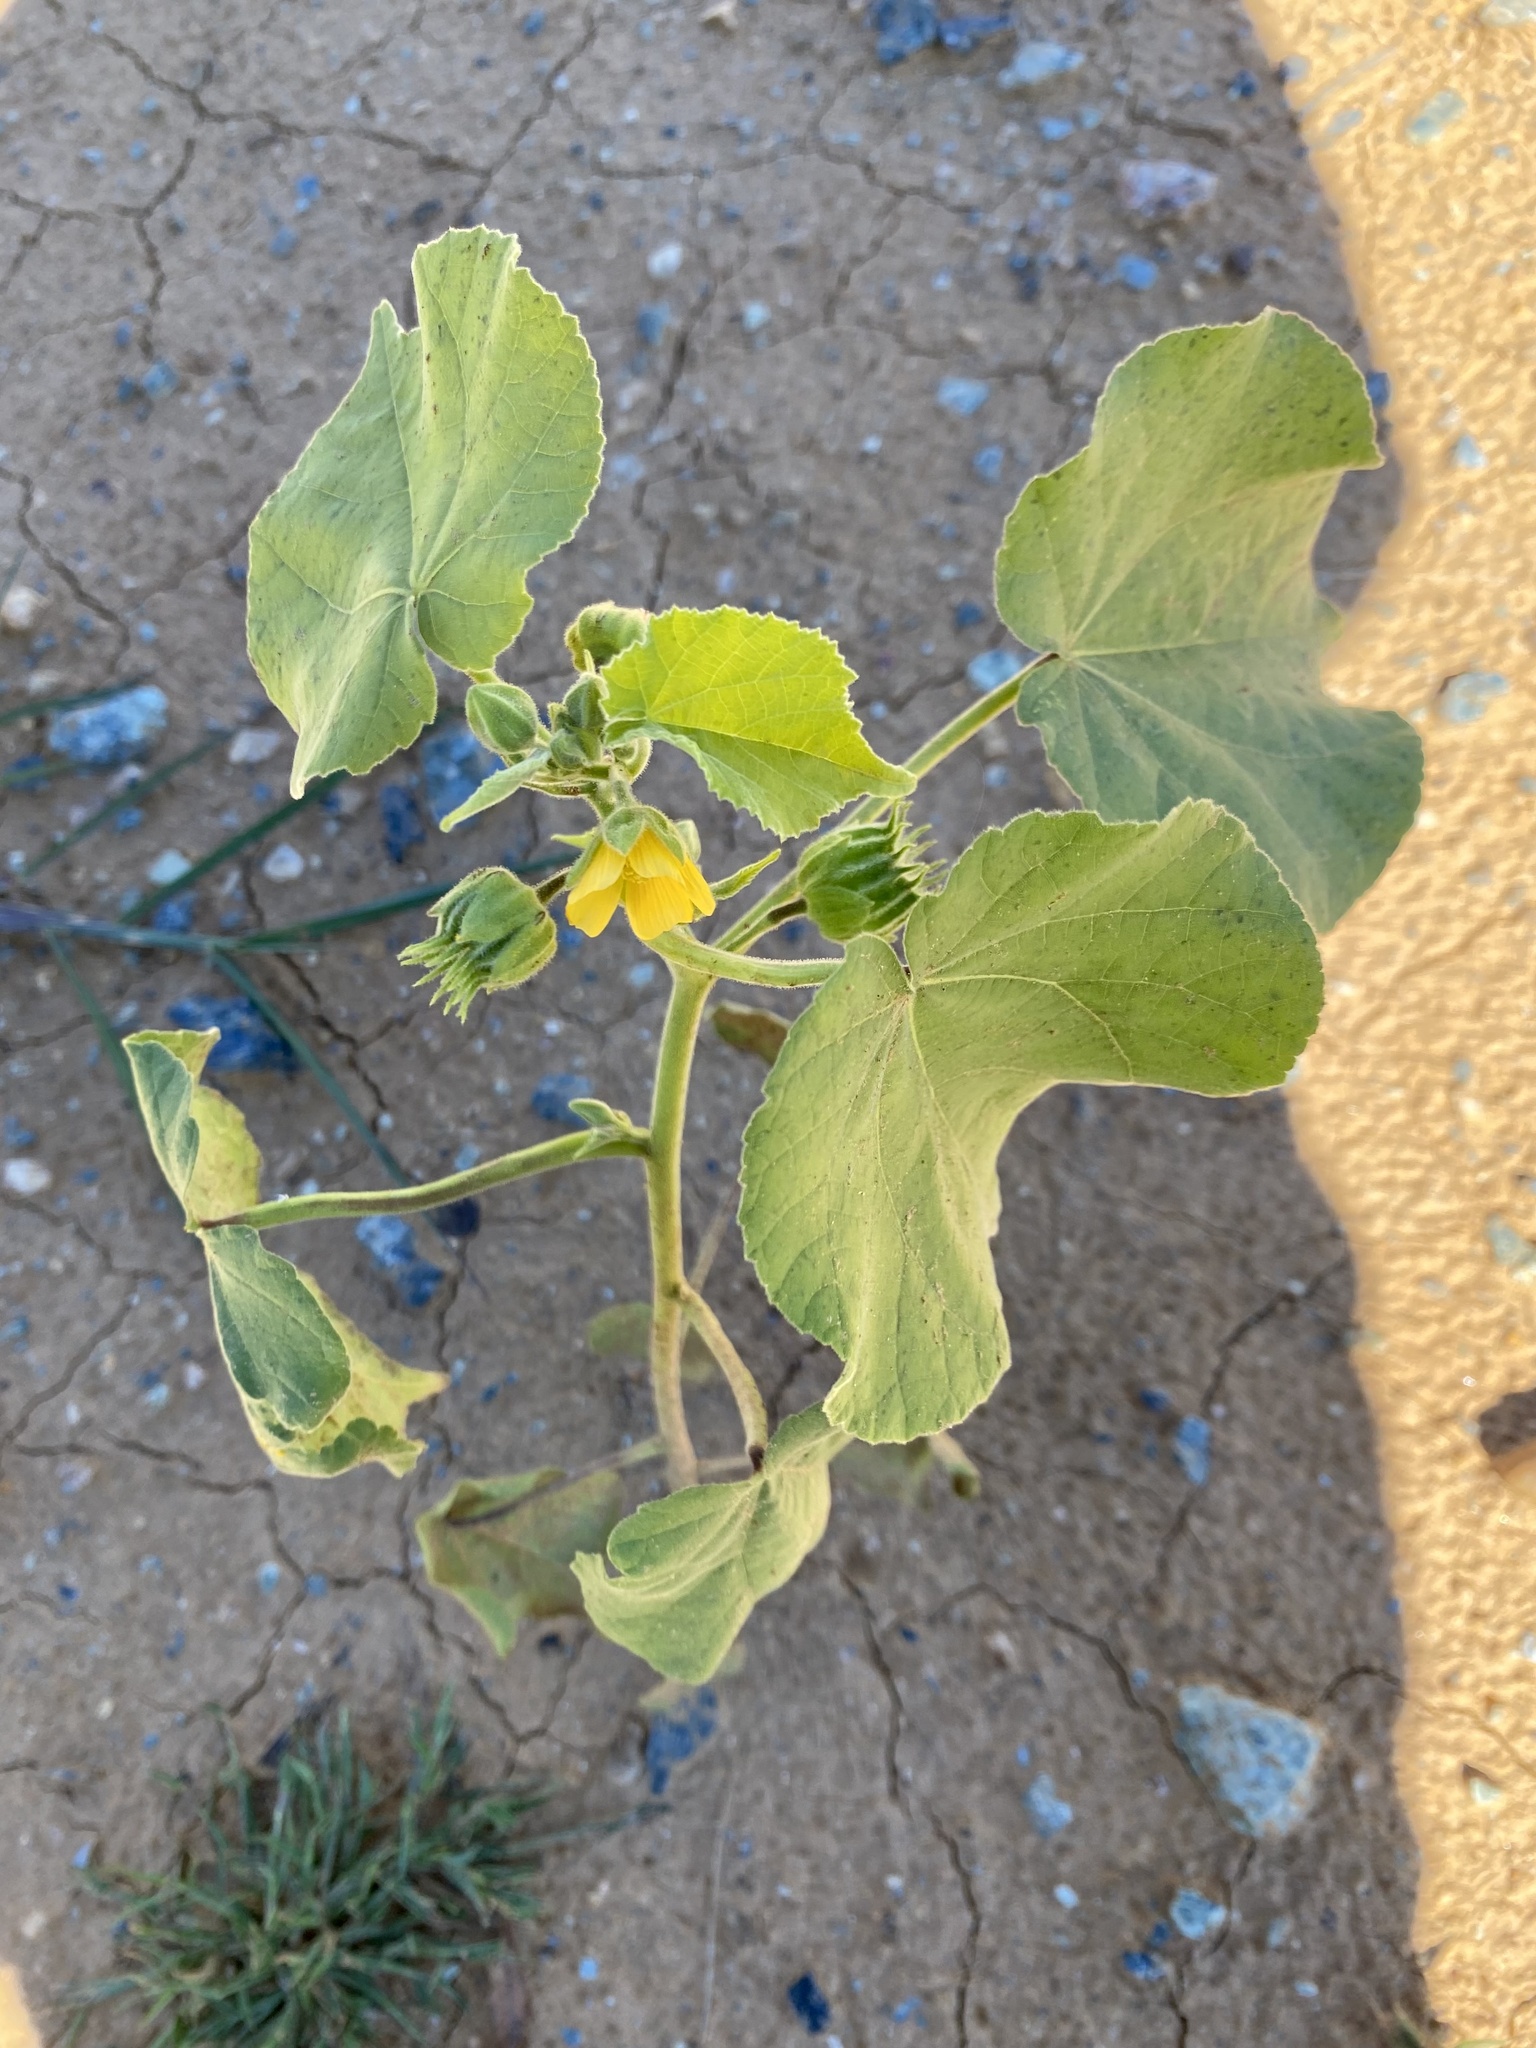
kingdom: Plantae
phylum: Tracheophyta
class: Magnoliopsida
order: Malvales
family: Malvaceae
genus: Abutilon
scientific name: Abutilon theophrasti
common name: Velvetleaf
